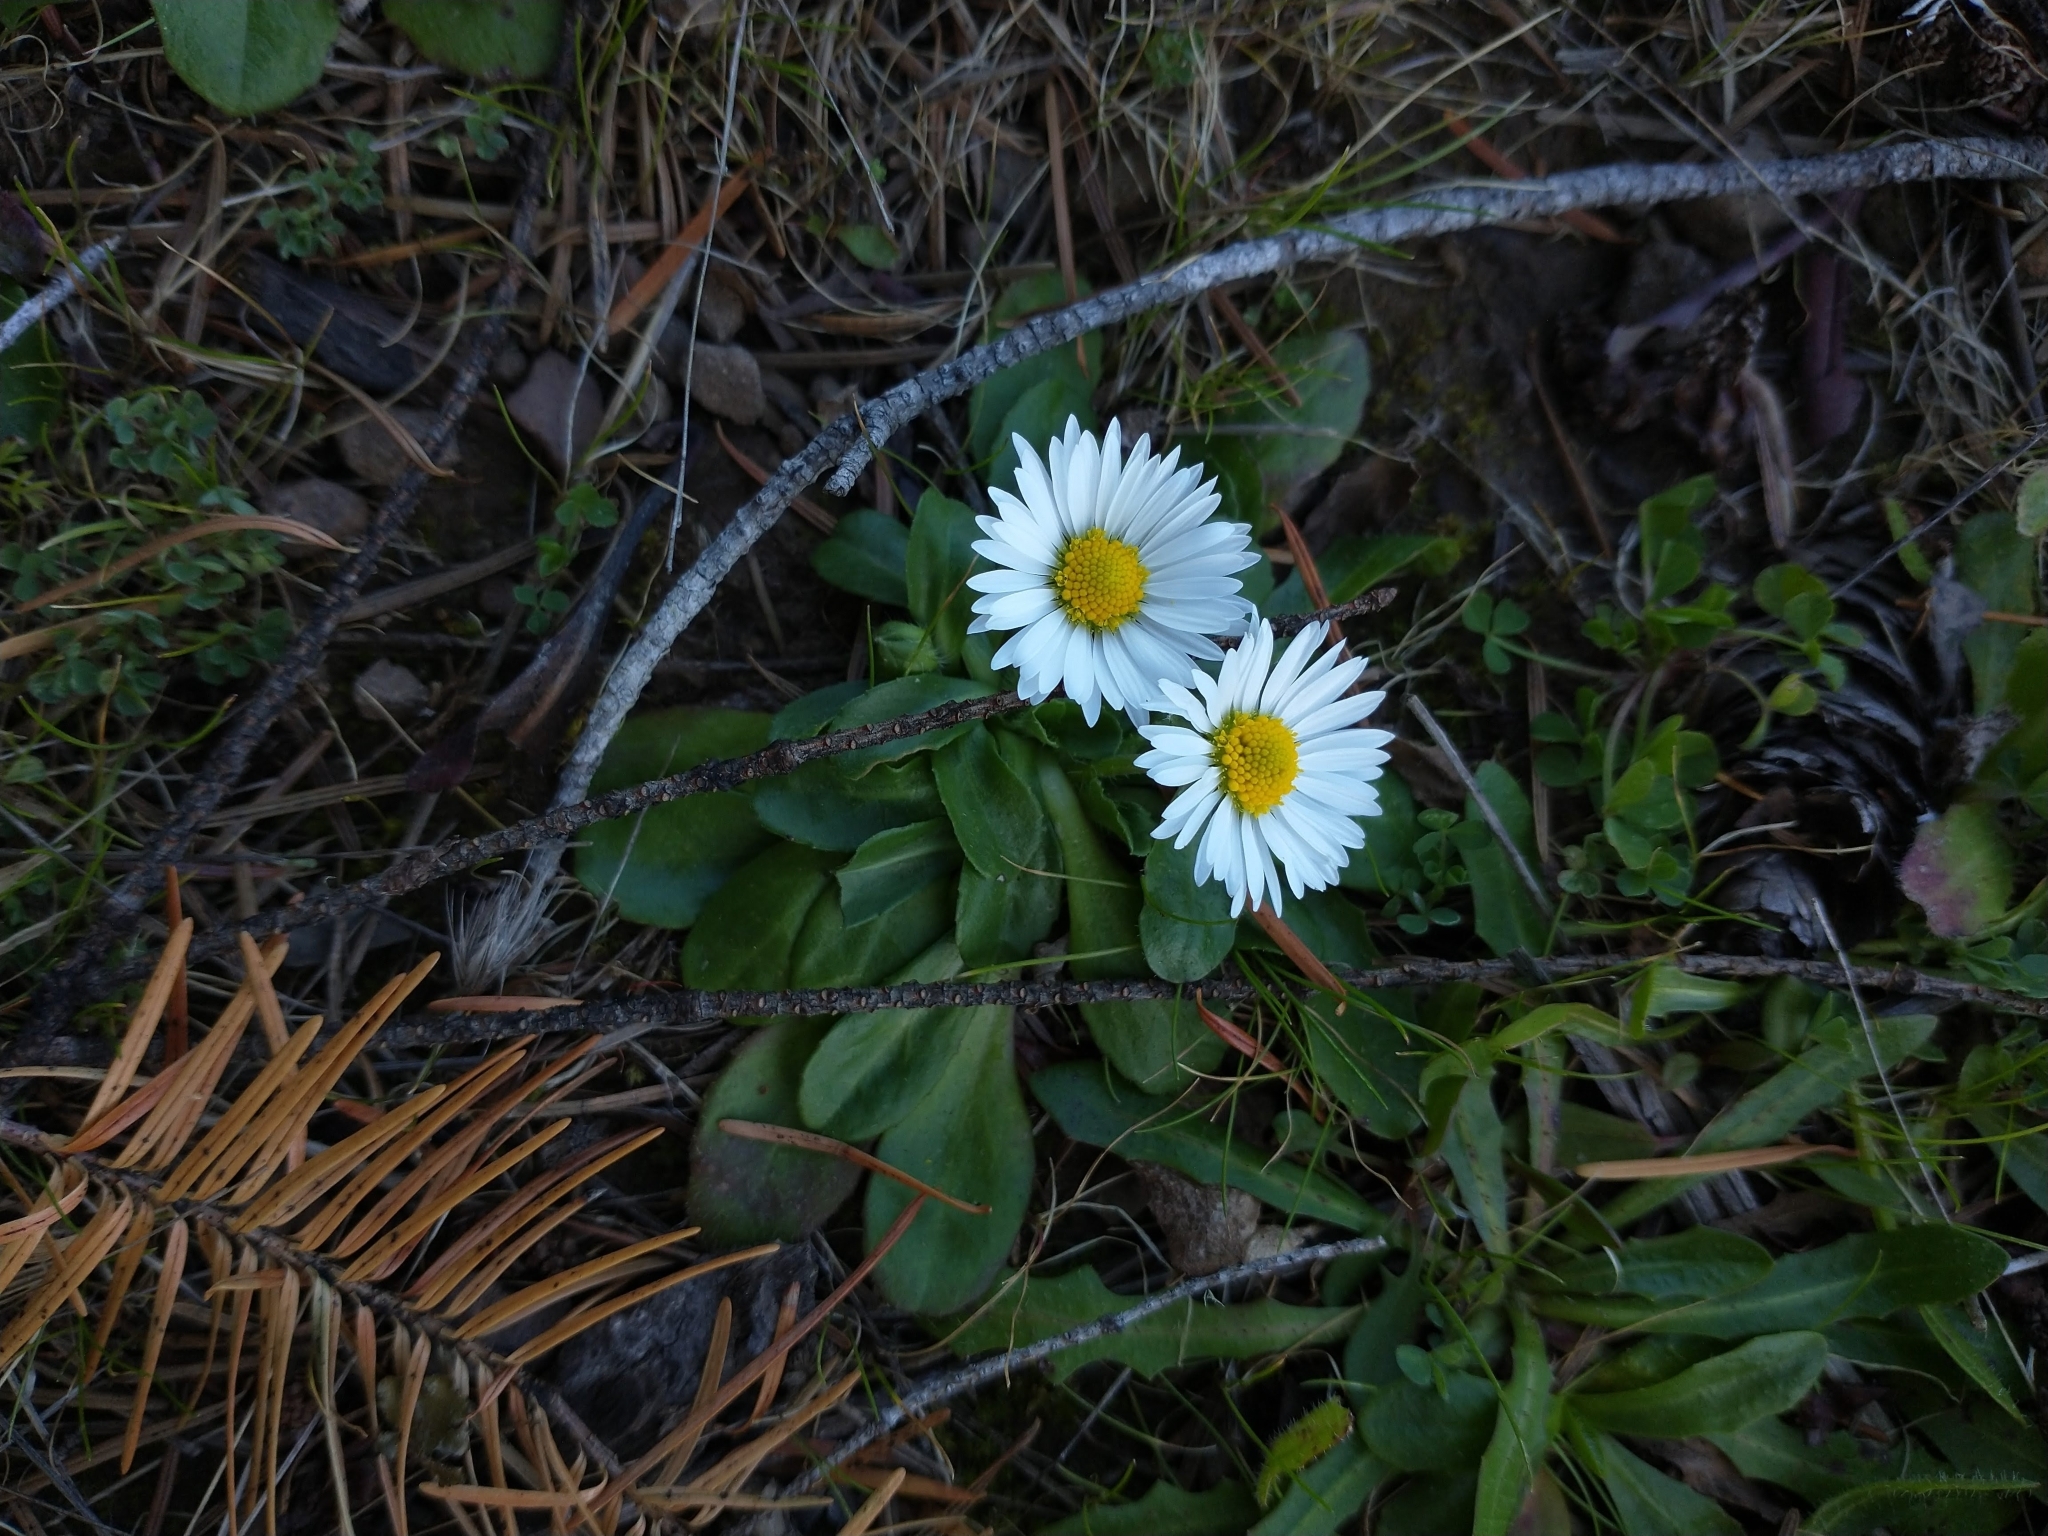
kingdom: Plantae
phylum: Tracheophyta
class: Magnoliopsida
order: Asterales
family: Asteraceae
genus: Bellis
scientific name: Bellis perennis
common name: Lawndaisy
